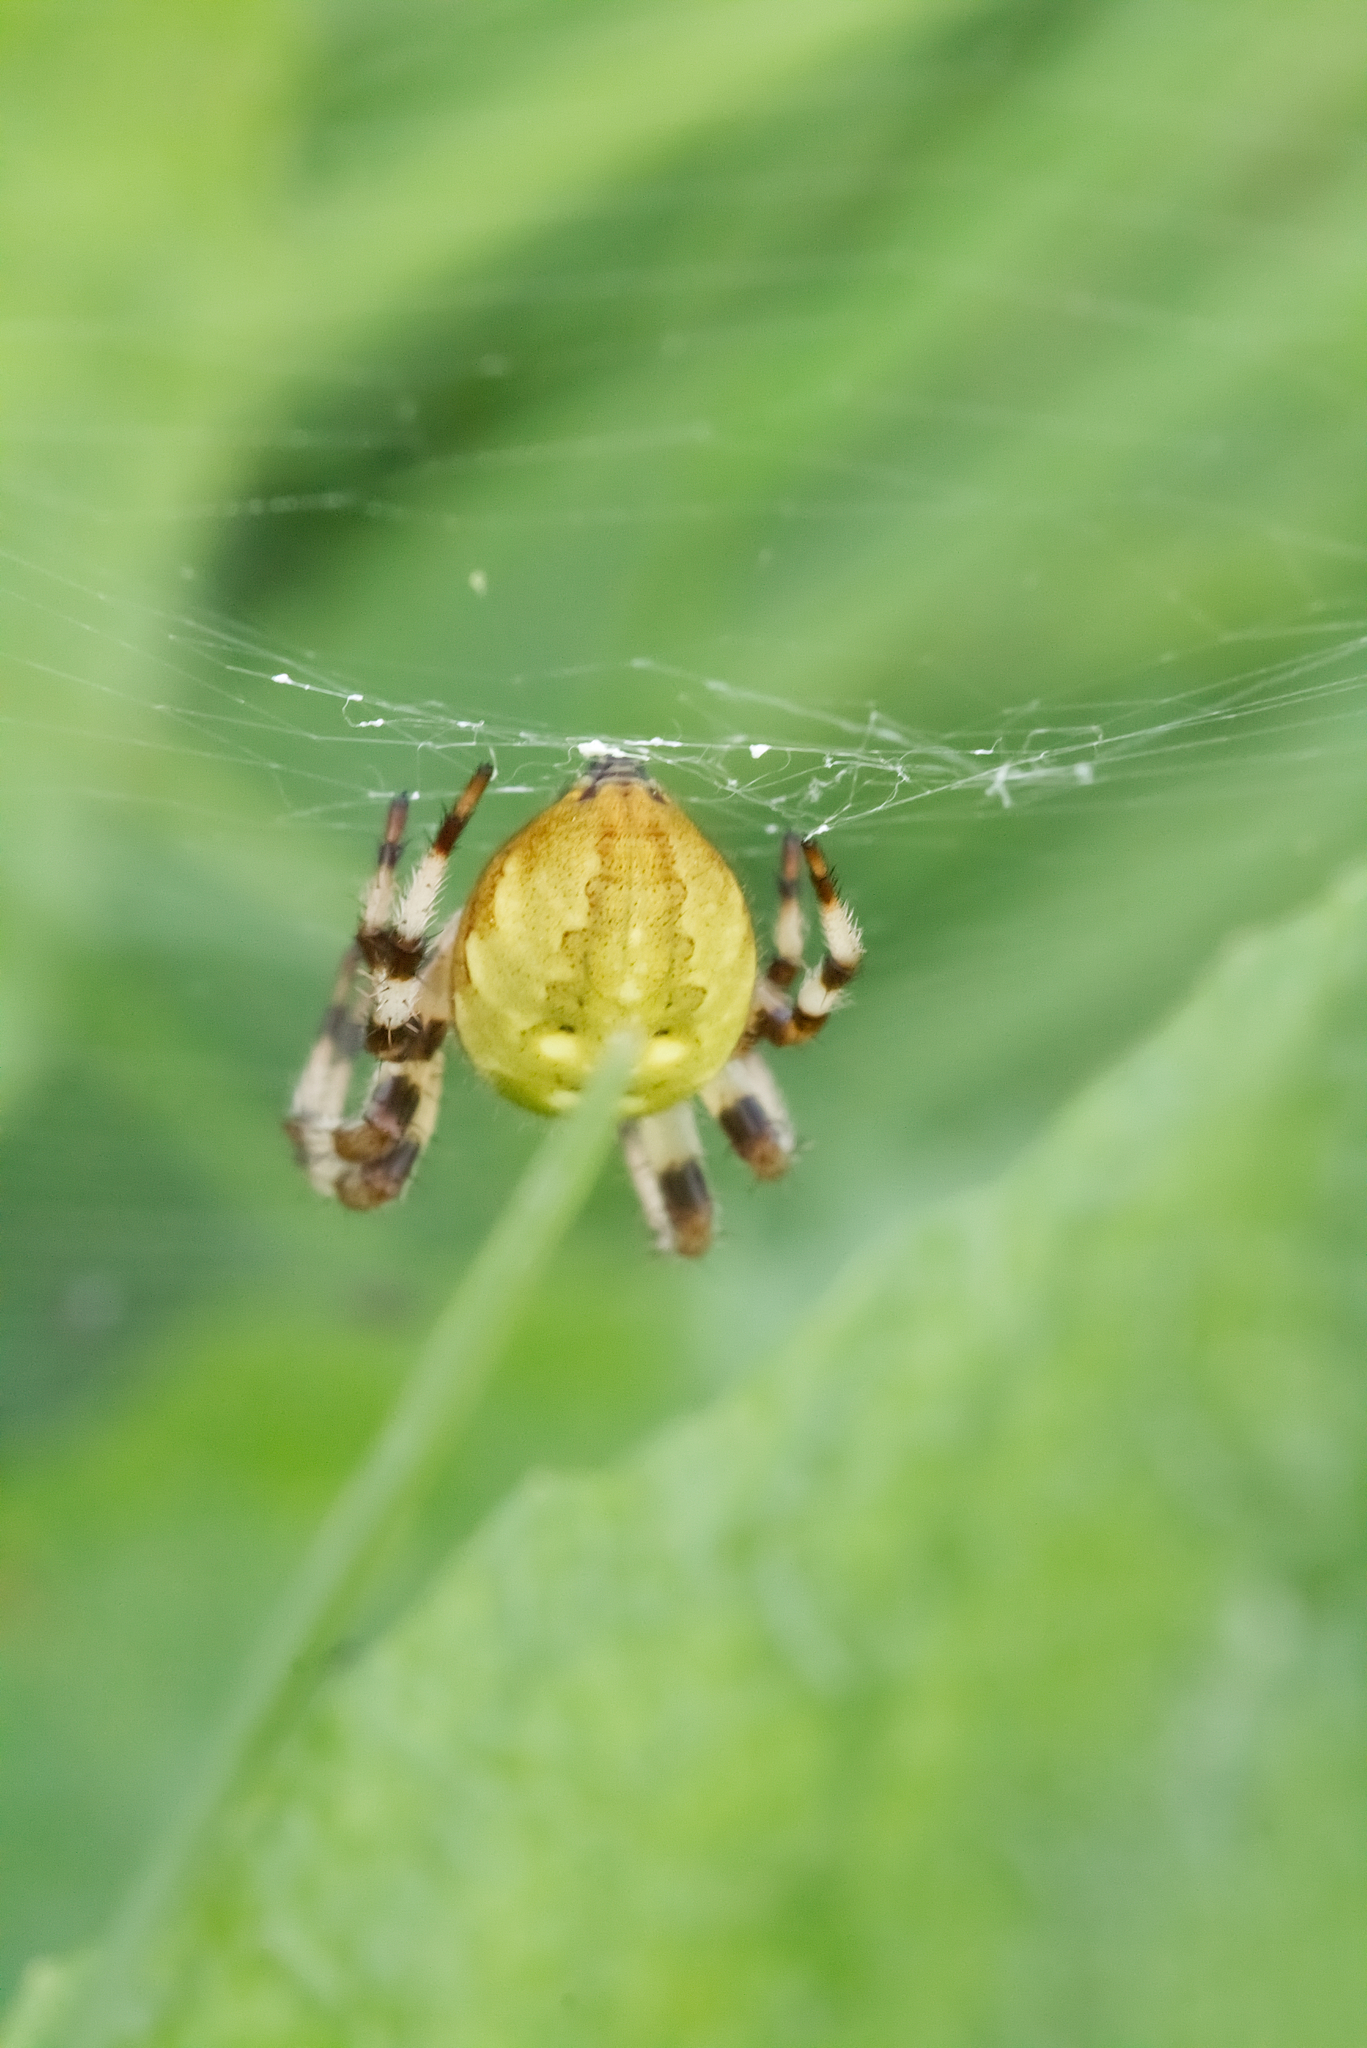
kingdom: Animalia
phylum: Arthropoda
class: Arachnida
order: Araneae
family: Araneidae
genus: Araneus
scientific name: Araneus quadratus
